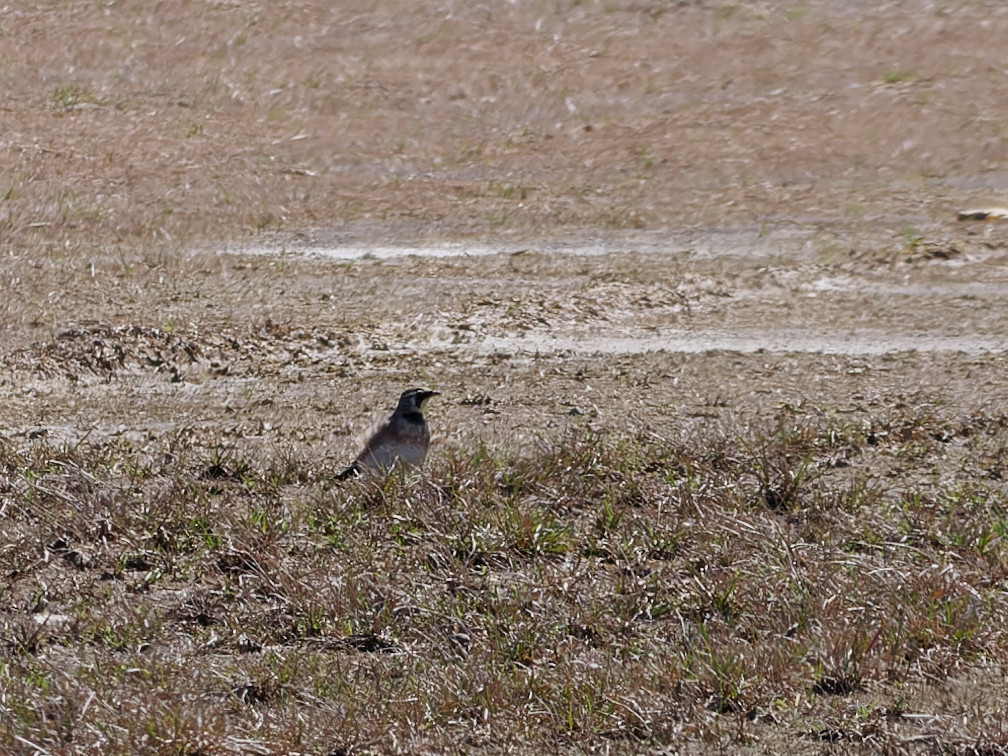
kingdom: Animalia
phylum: Chordata
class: Aves
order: Passeriformes
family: Alaudidae
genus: Eremophila
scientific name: Eremophila alpestris
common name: Horned lark
